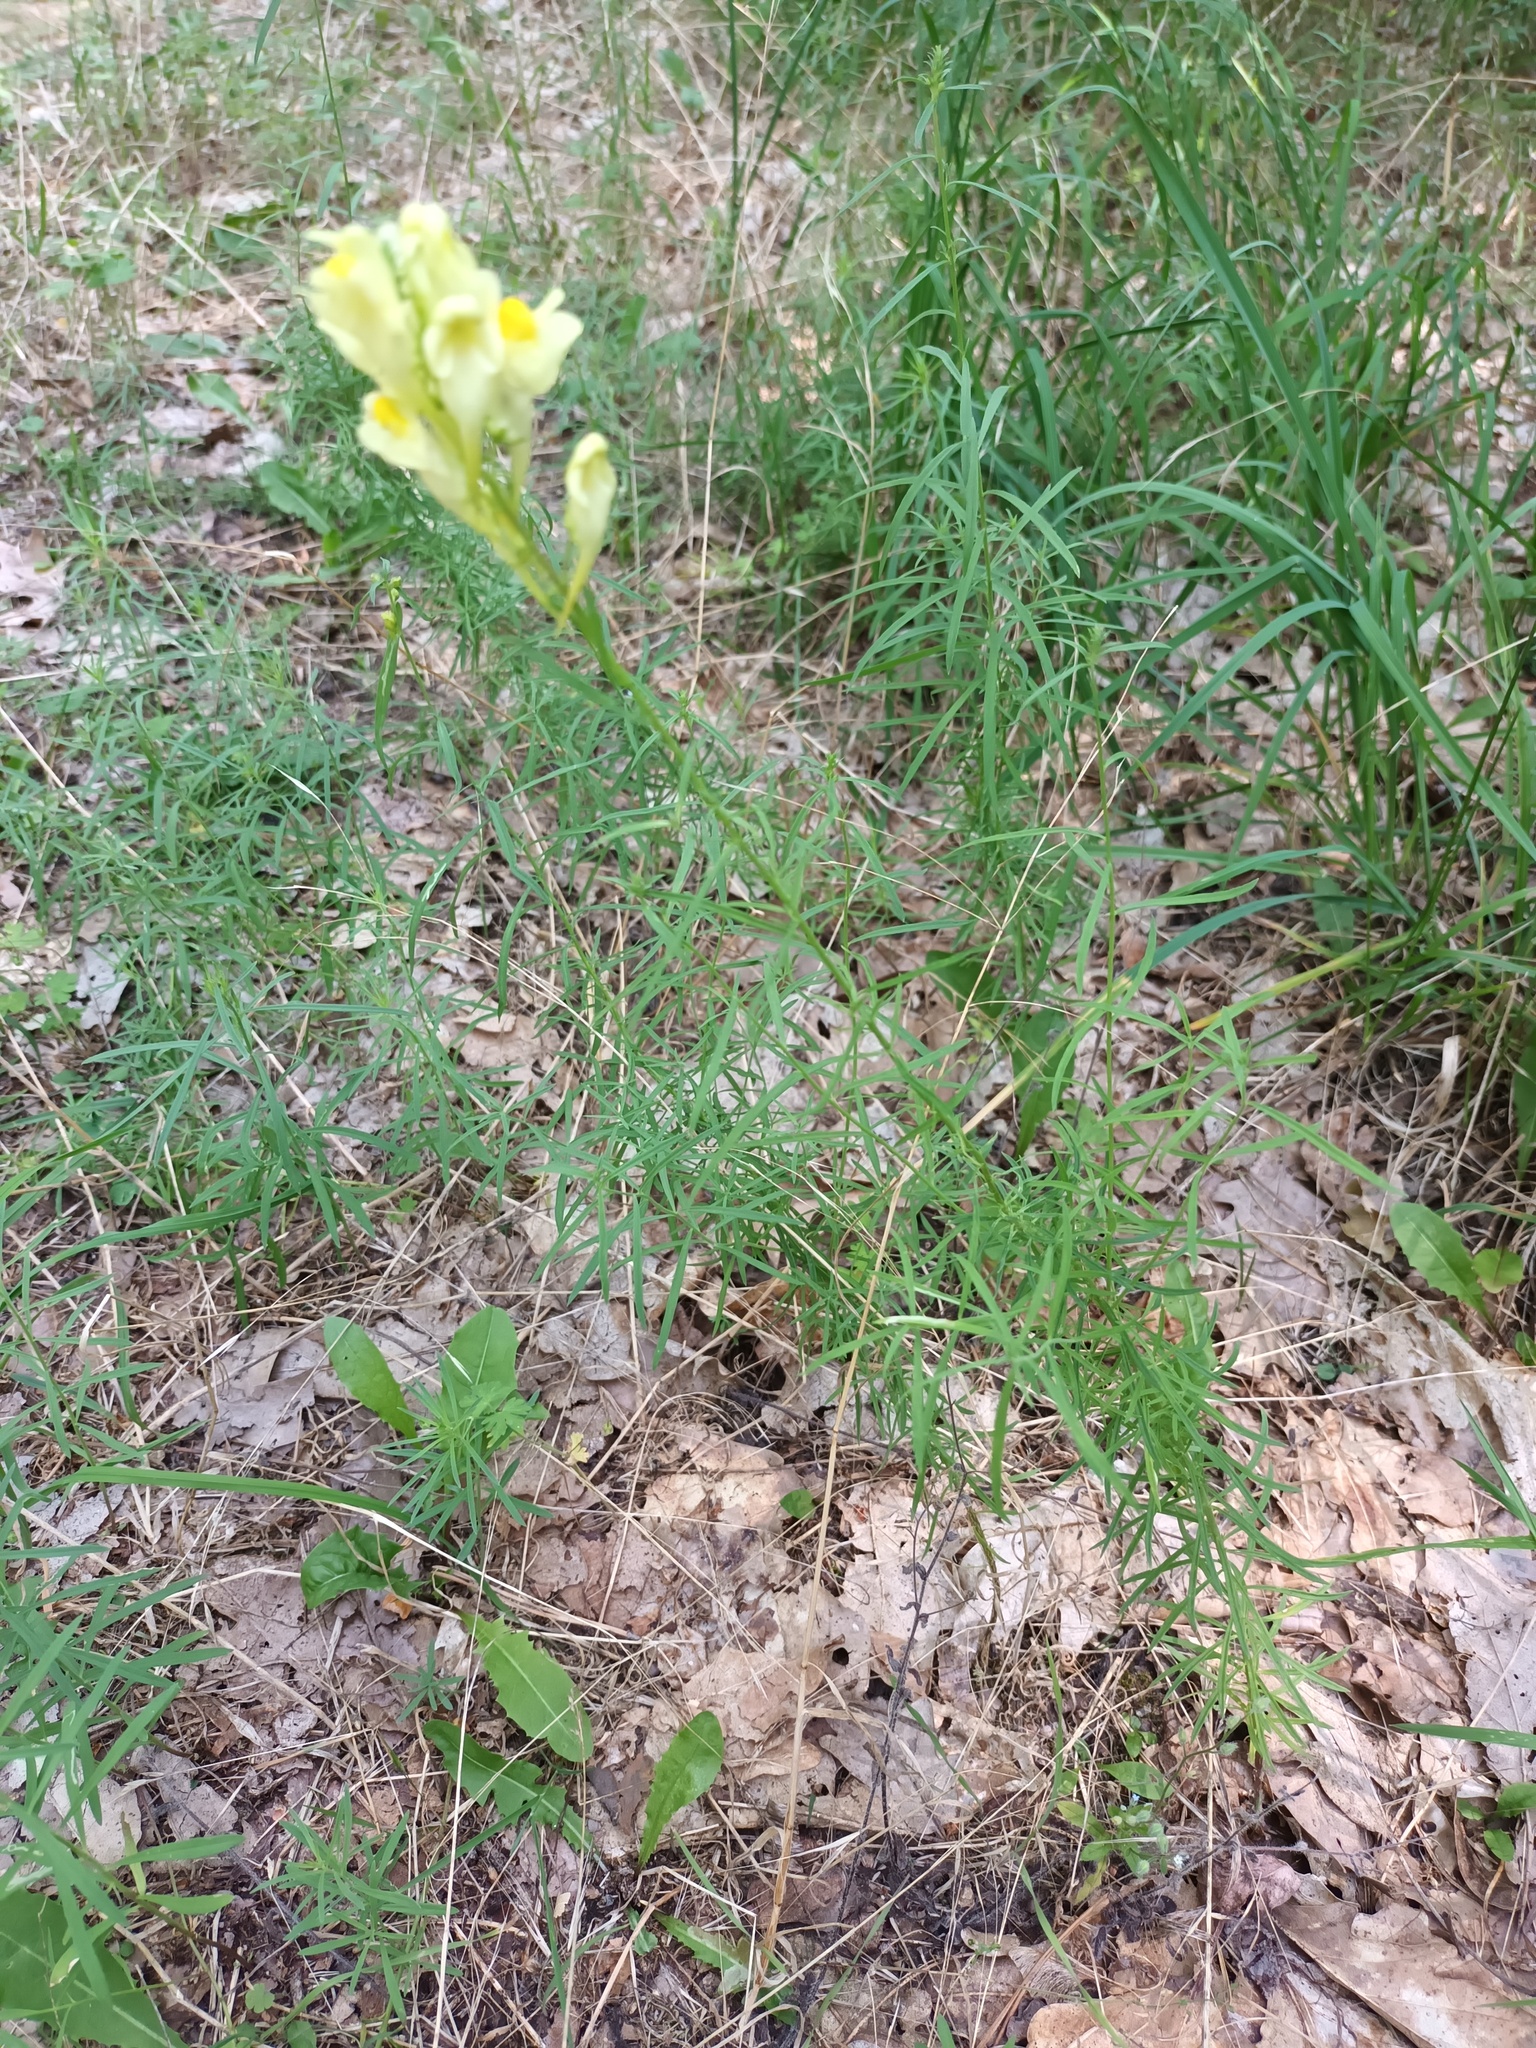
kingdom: Plantae
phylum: Tracheophyta
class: Magnoliopsida
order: Lamiales
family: Plantaginaceae
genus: Linaria
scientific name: Linaria vulgaris
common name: Butter and eggs
